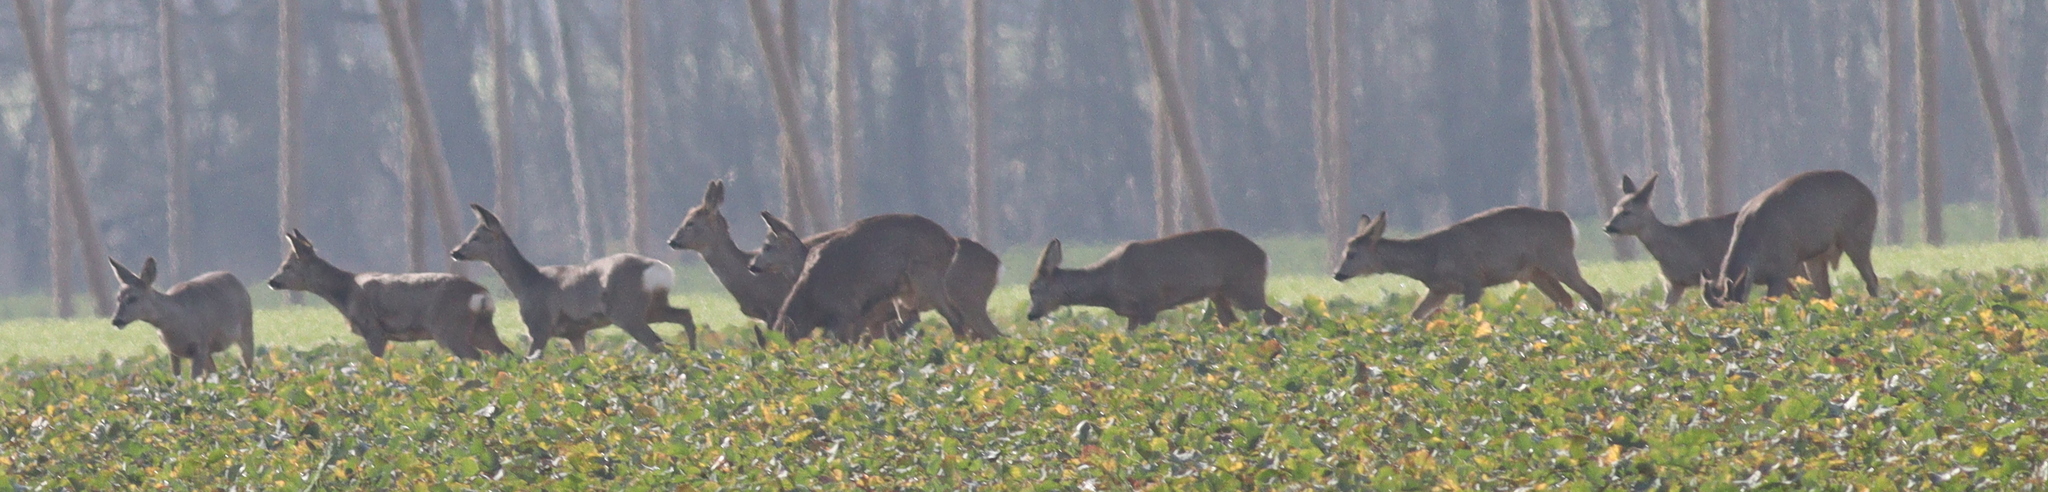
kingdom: Animalia
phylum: Chordata
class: Mammalia
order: Artiodactyla
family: Cervidae
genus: Capreolus
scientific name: Capreolus capreolus
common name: Western roe deer
